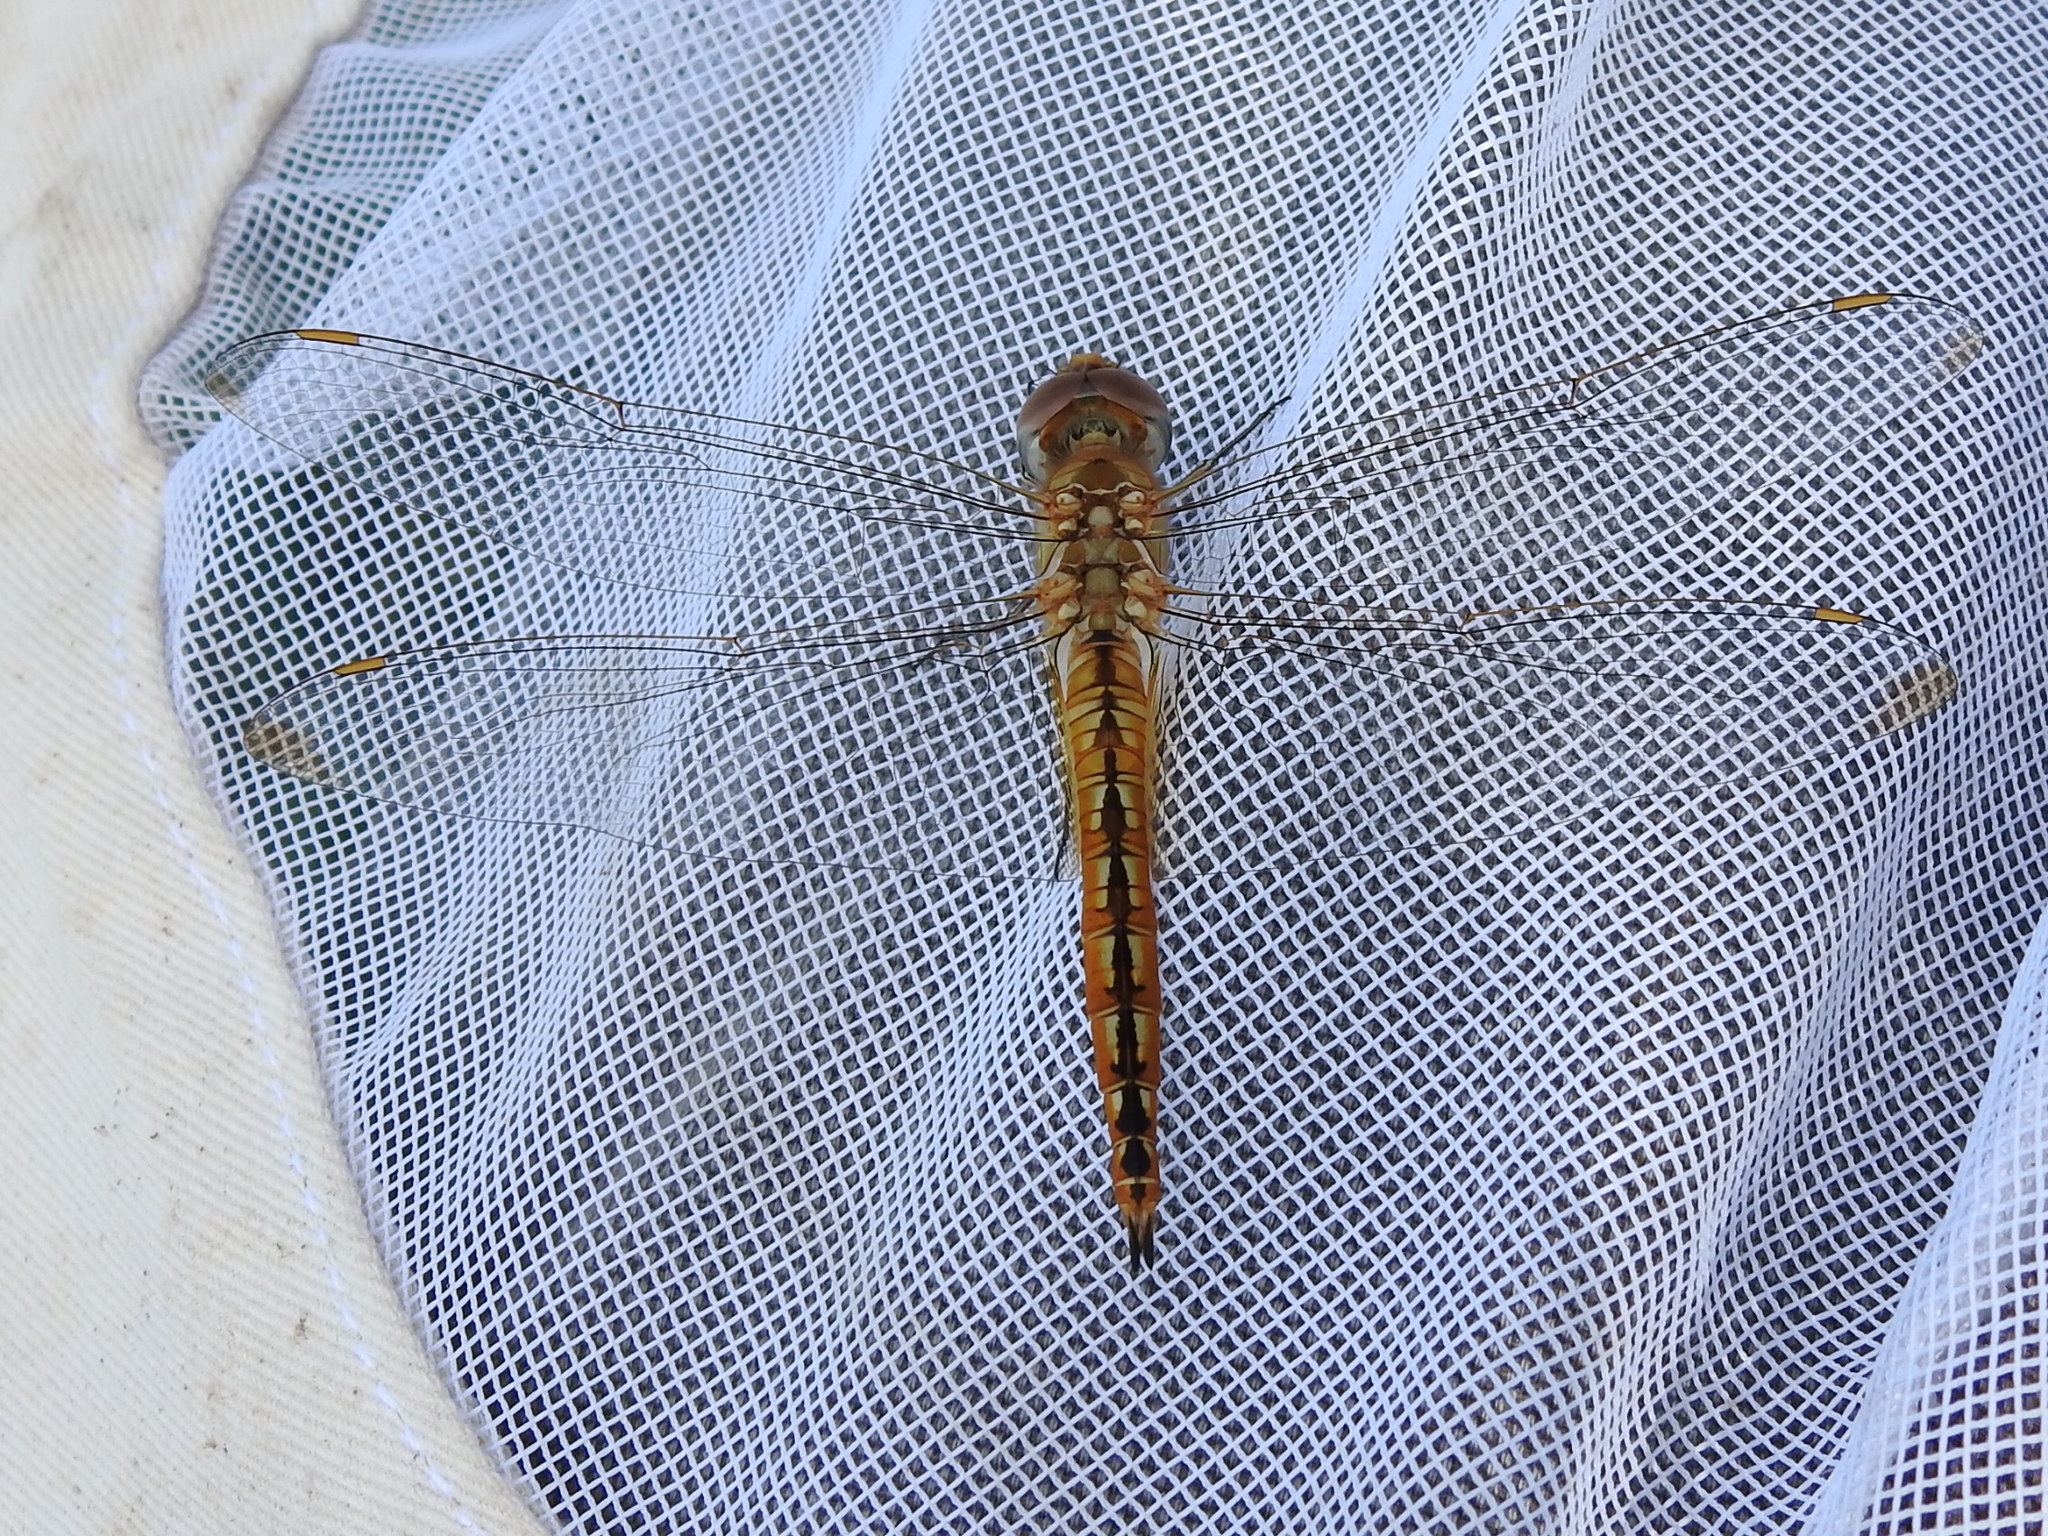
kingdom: Animalia
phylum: Arthropoda
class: Insecta
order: Odonata
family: Libellulidae
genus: Pantala
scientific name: Pantala flavescens
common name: Wandering glider
